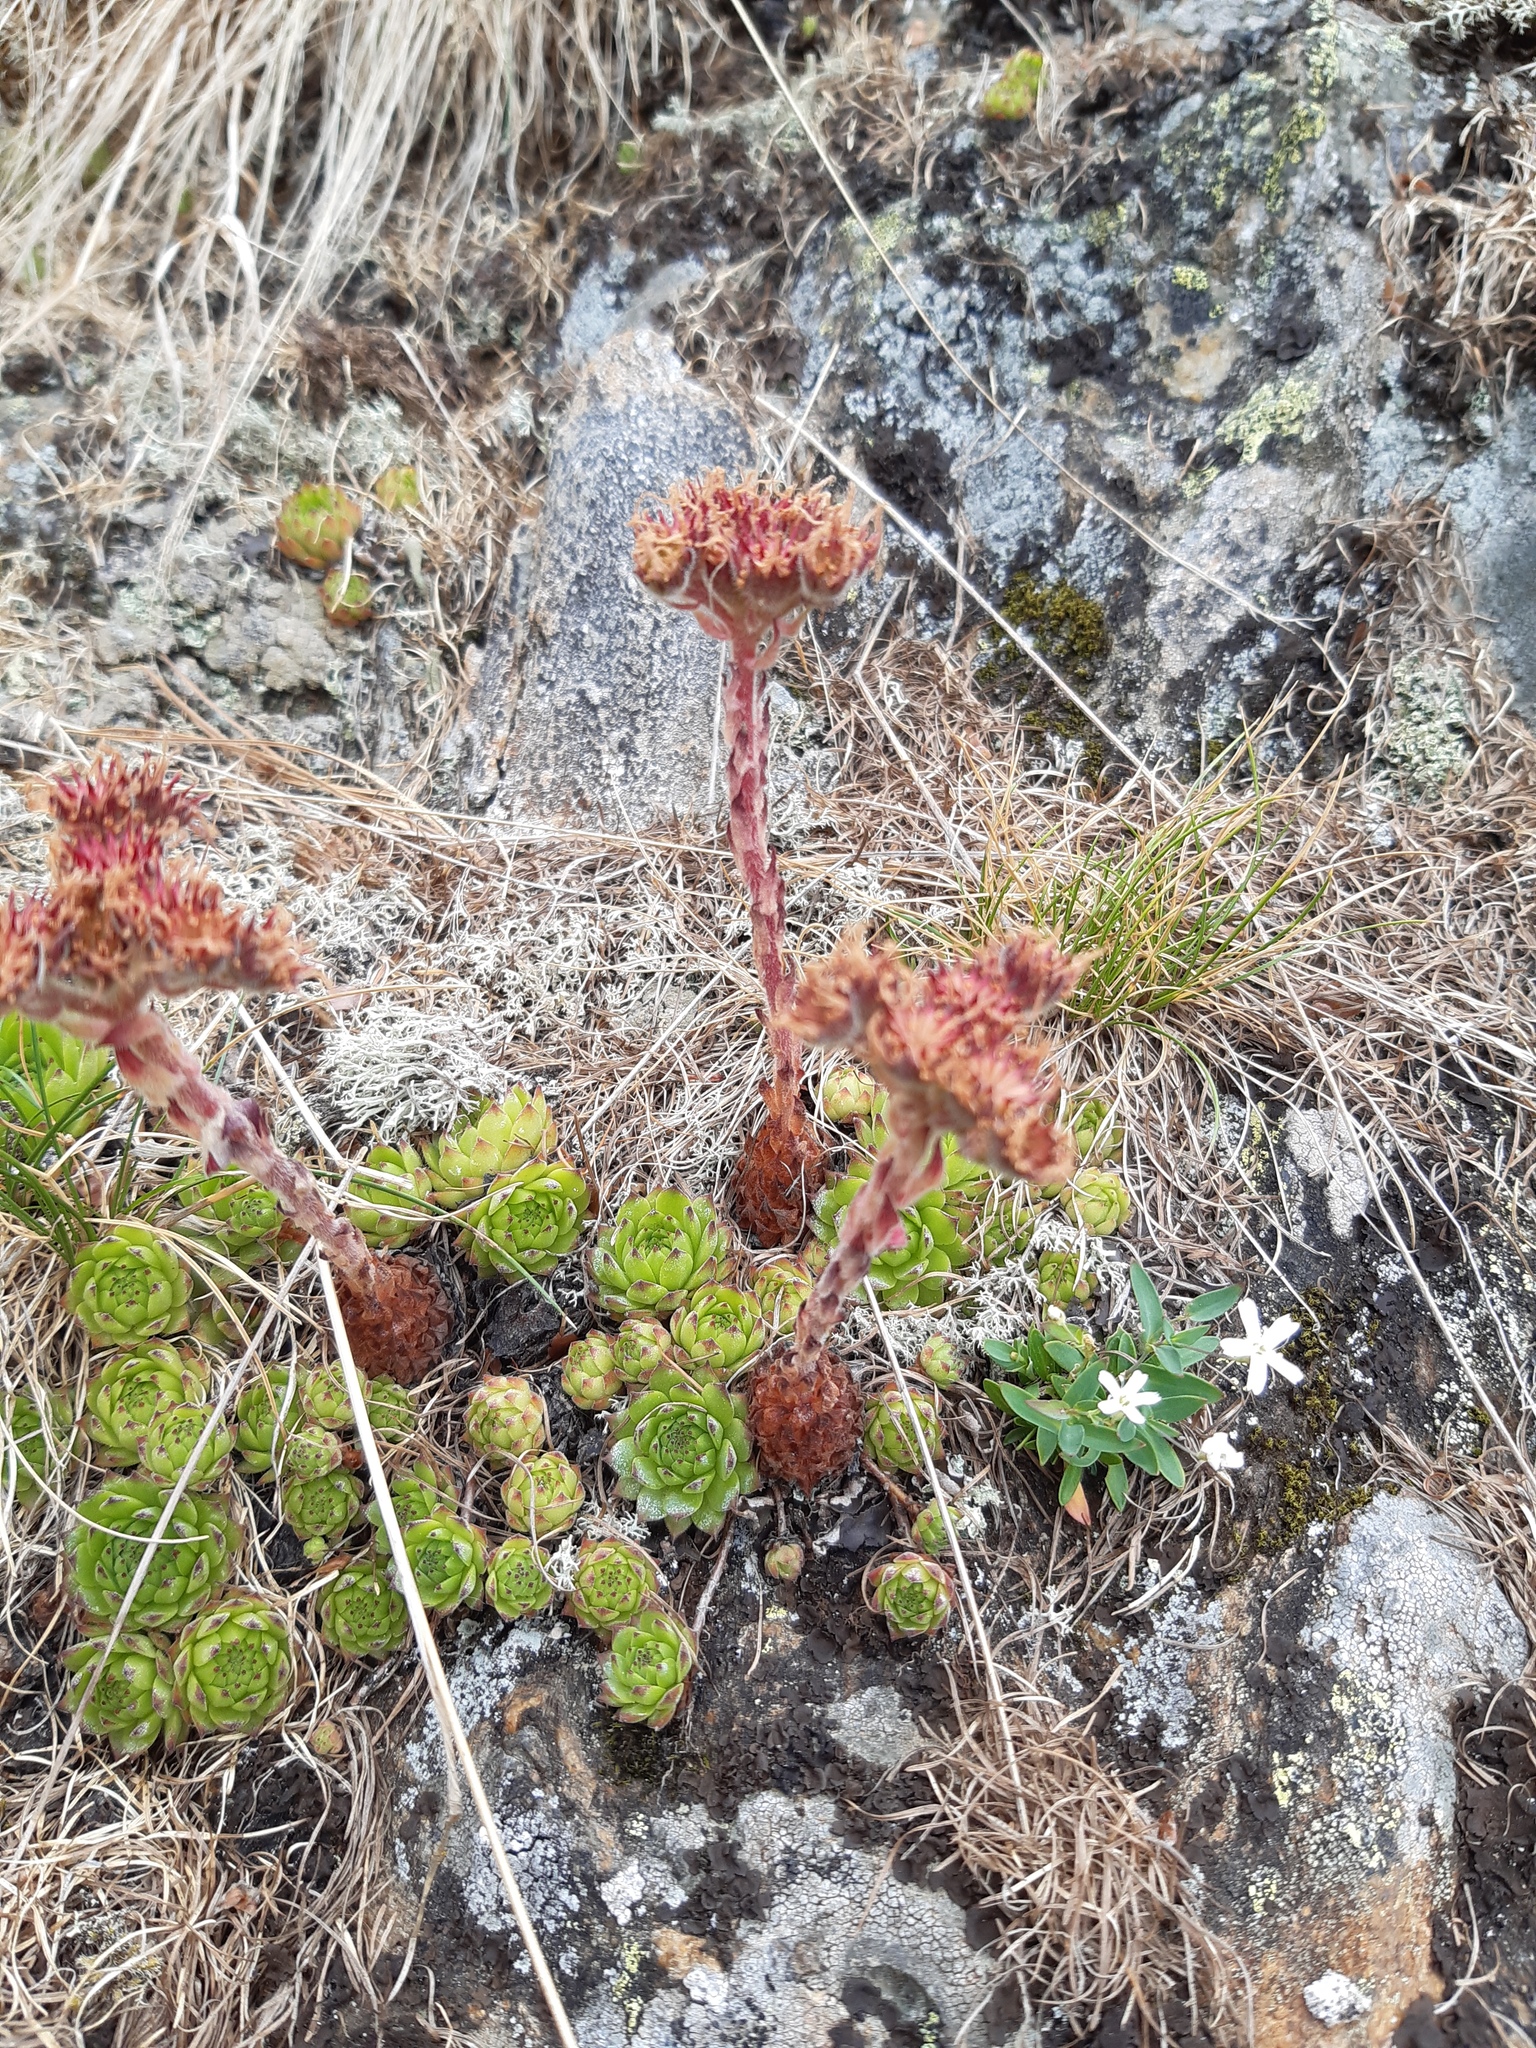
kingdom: Plantae
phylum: Tracheophyta
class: Magnoliopsida
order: Saxifragales
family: Crassulaceae
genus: Sempervivum
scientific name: Sempervivum montanum
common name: Mountain house-leek
